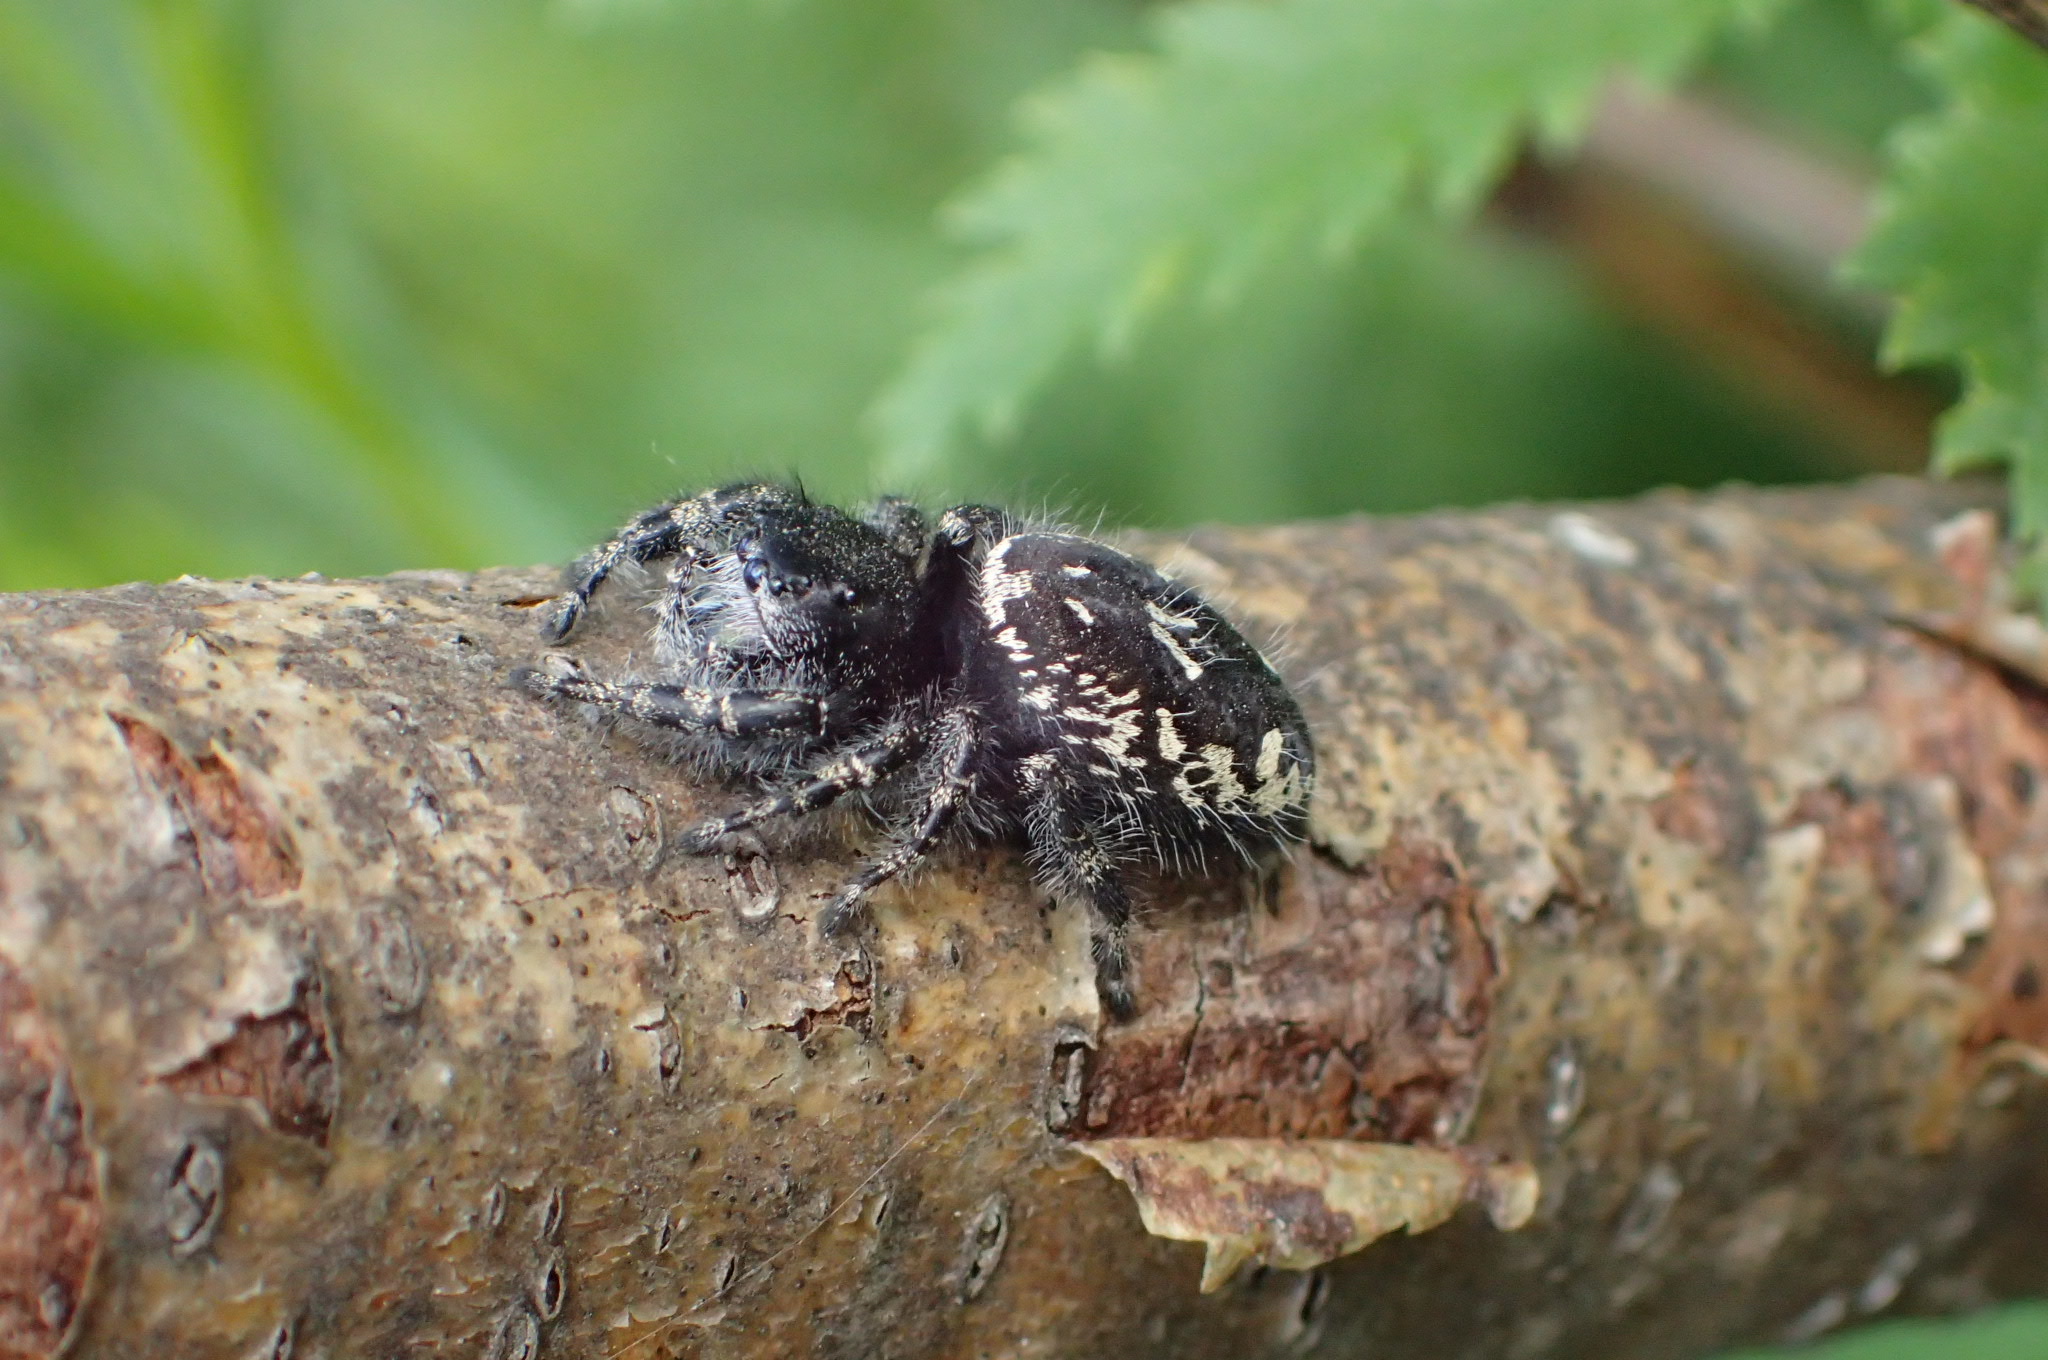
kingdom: Animalia
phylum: Arthropoda
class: Arachnida
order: Araneae
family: Salticidae
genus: Phidippus
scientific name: Phidippus borealis
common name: Boreal tufted jumping spider
